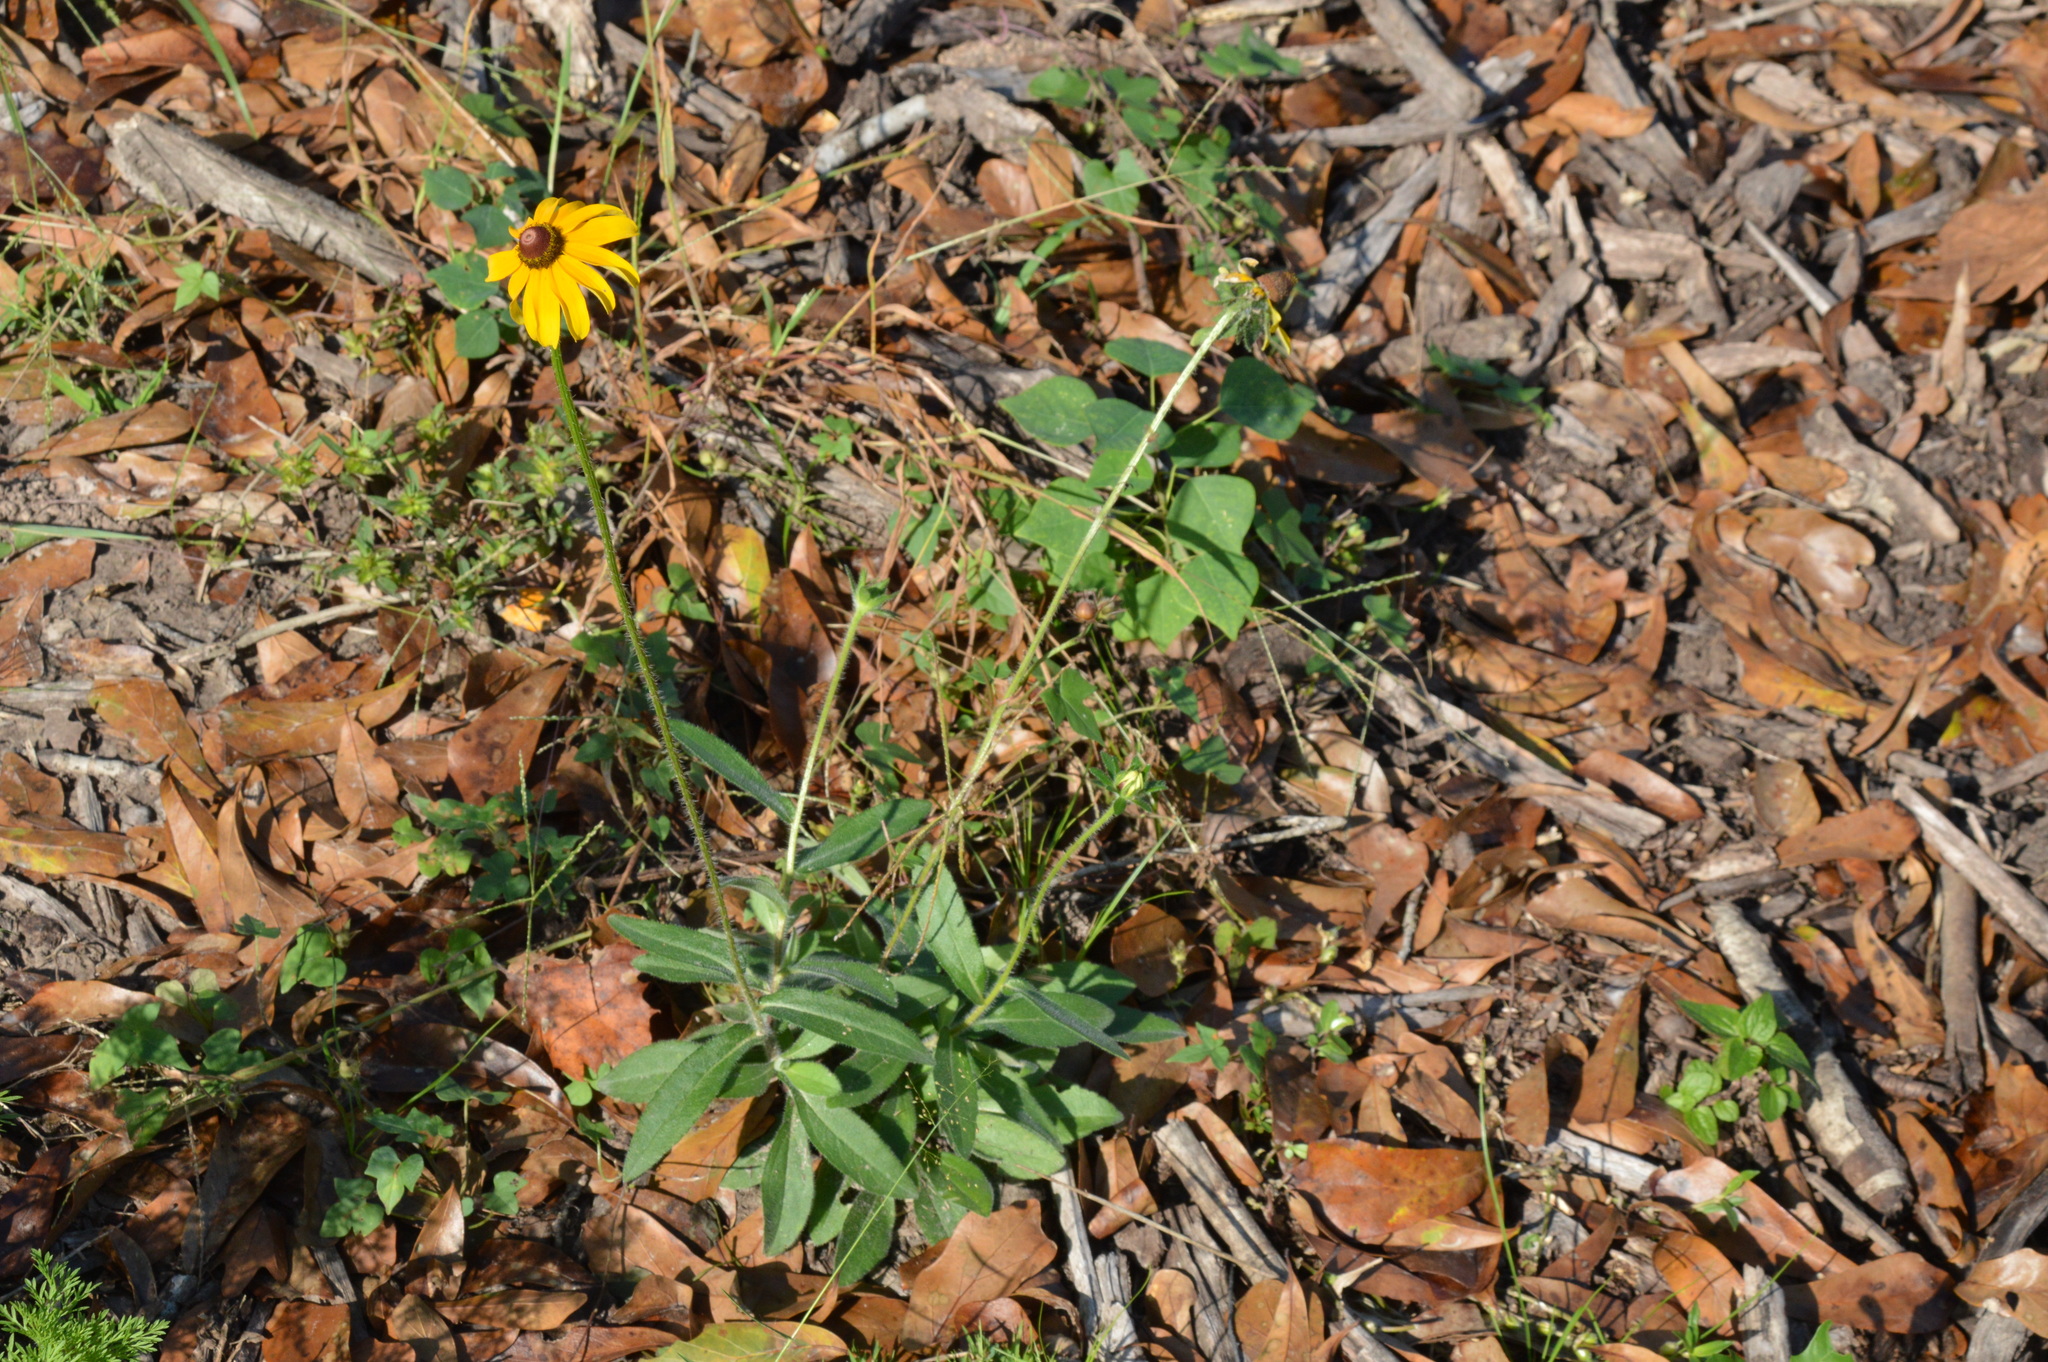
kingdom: Plantae
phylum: Tracheophyta
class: Magnoliopsida
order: Asterales
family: Asteraceae
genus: Rudbeckia
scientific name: Rudbeckia hirta
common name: Black-eyed-susan
